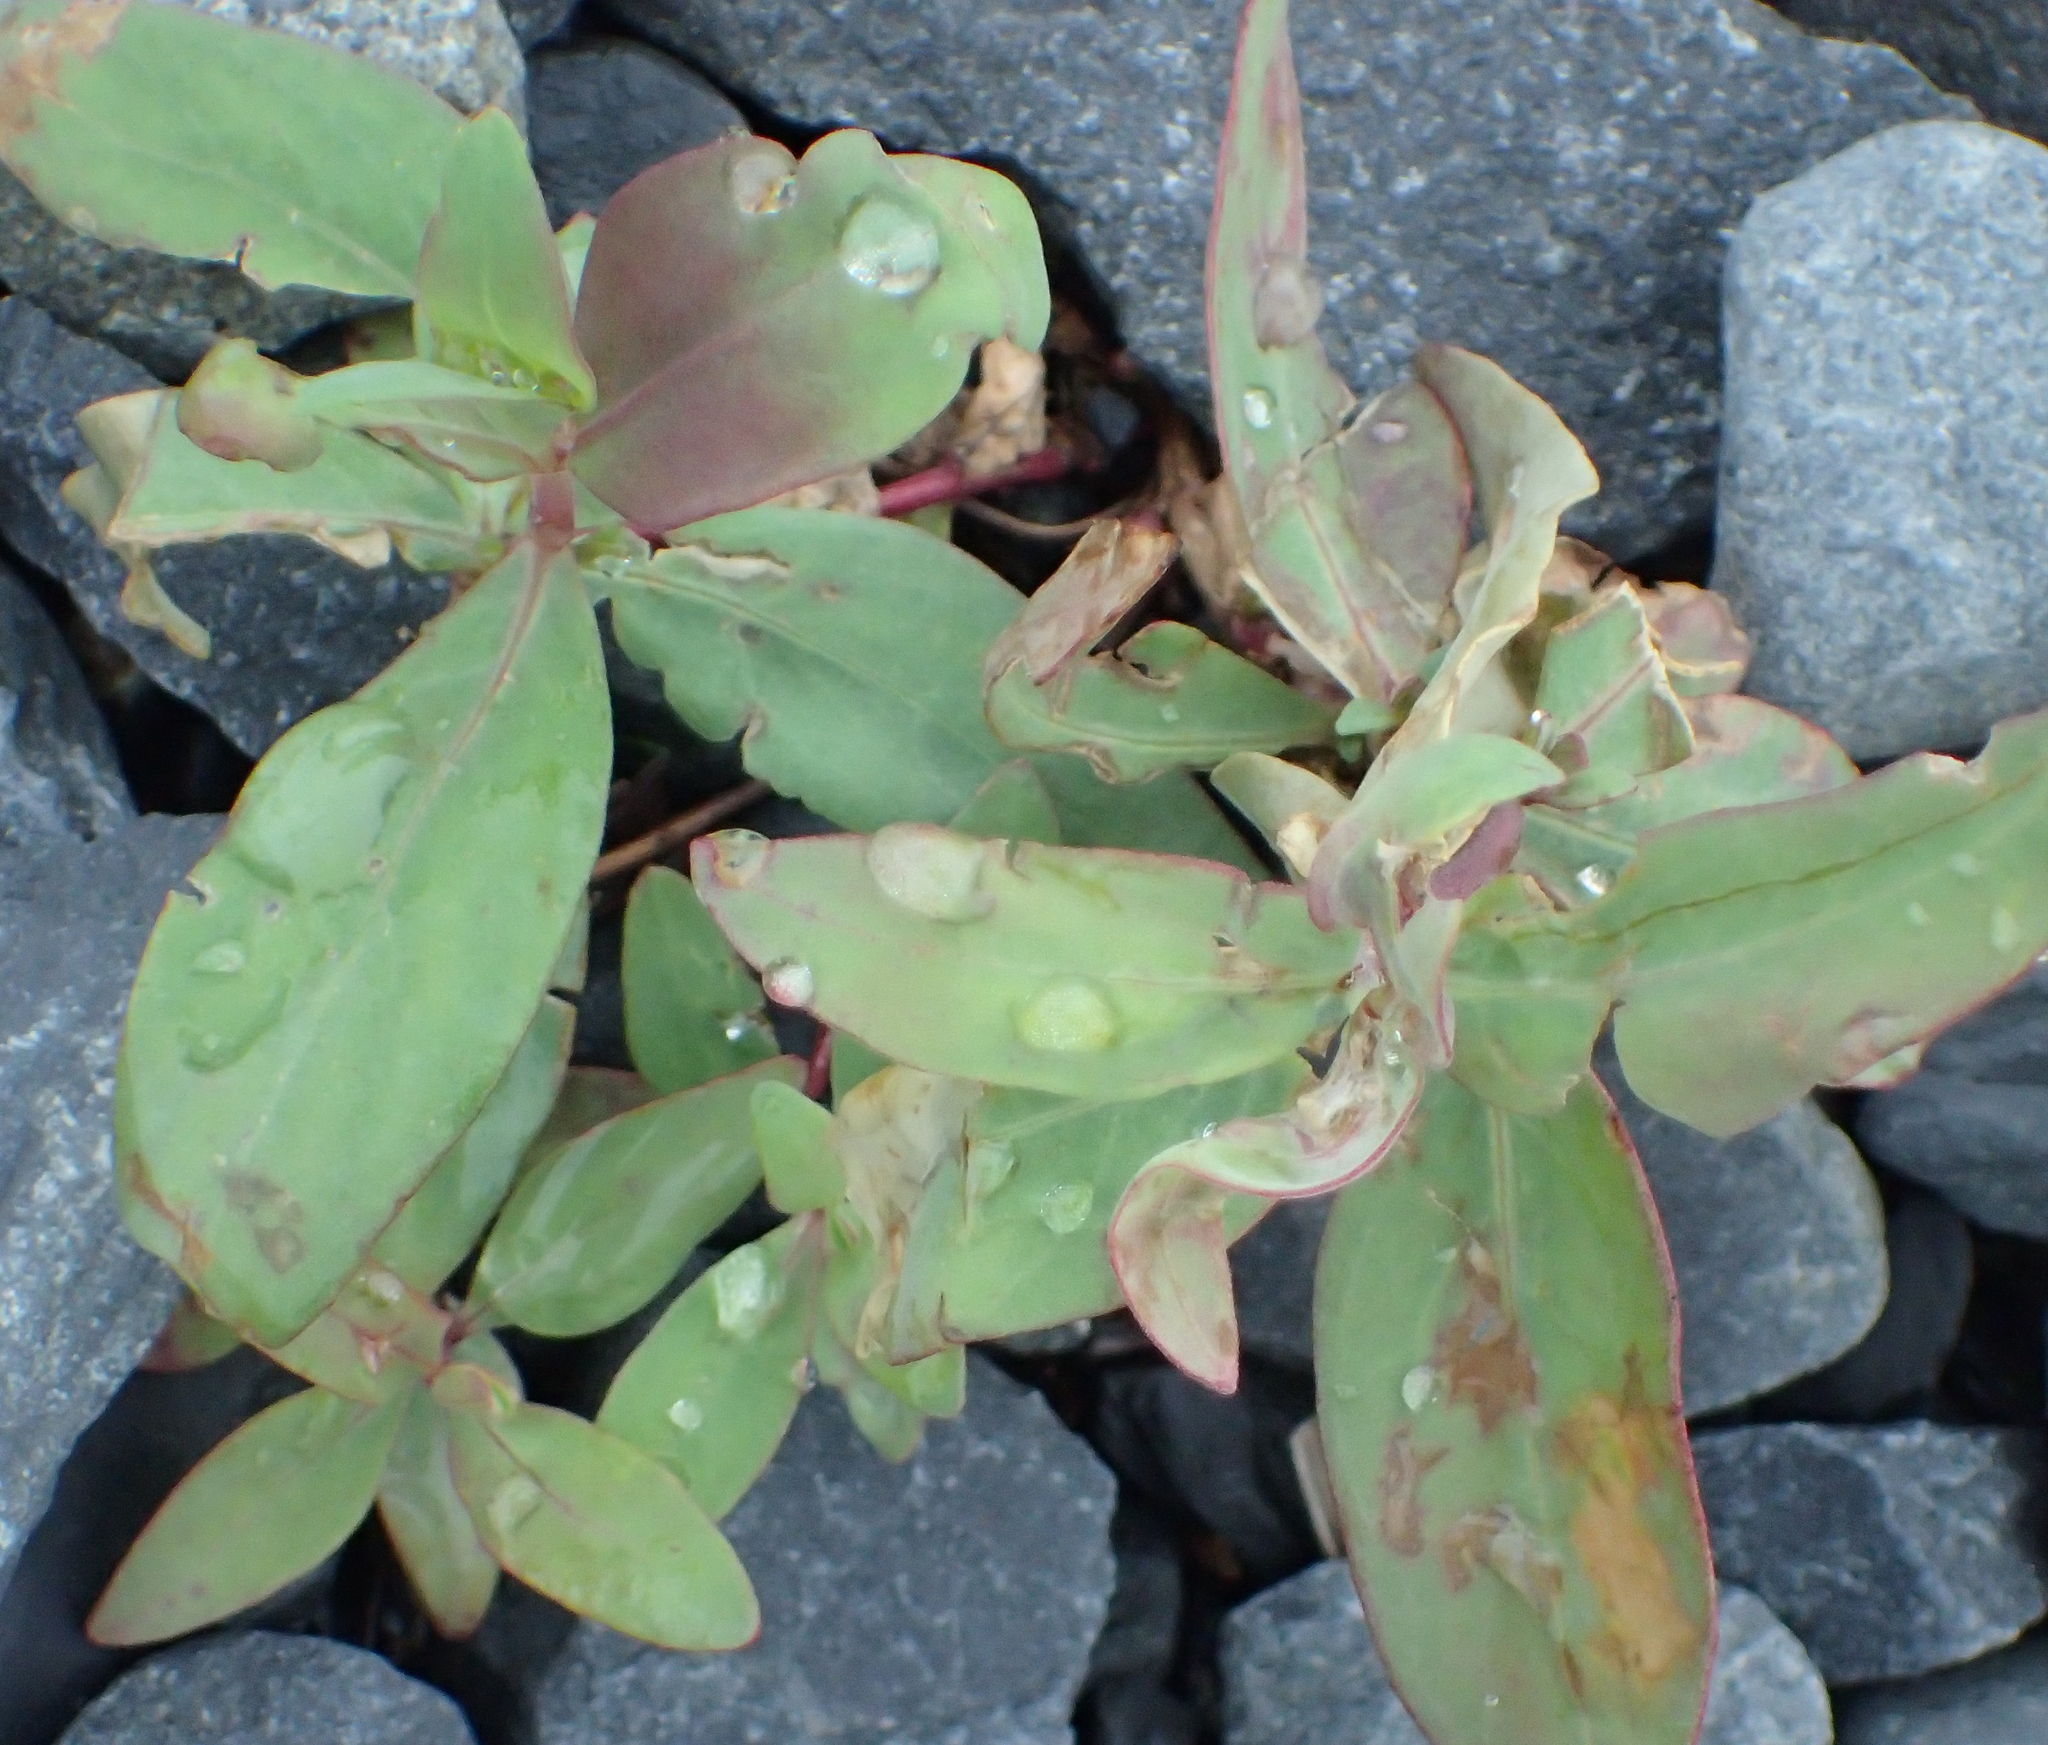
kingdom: Plantae
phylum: Tracheophyta
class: Magnoliopsida
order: Myrtales
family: Onagraceae
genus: Chamaenerion
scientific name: Chamaenerion latifolium
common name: Dwarf fireweed
